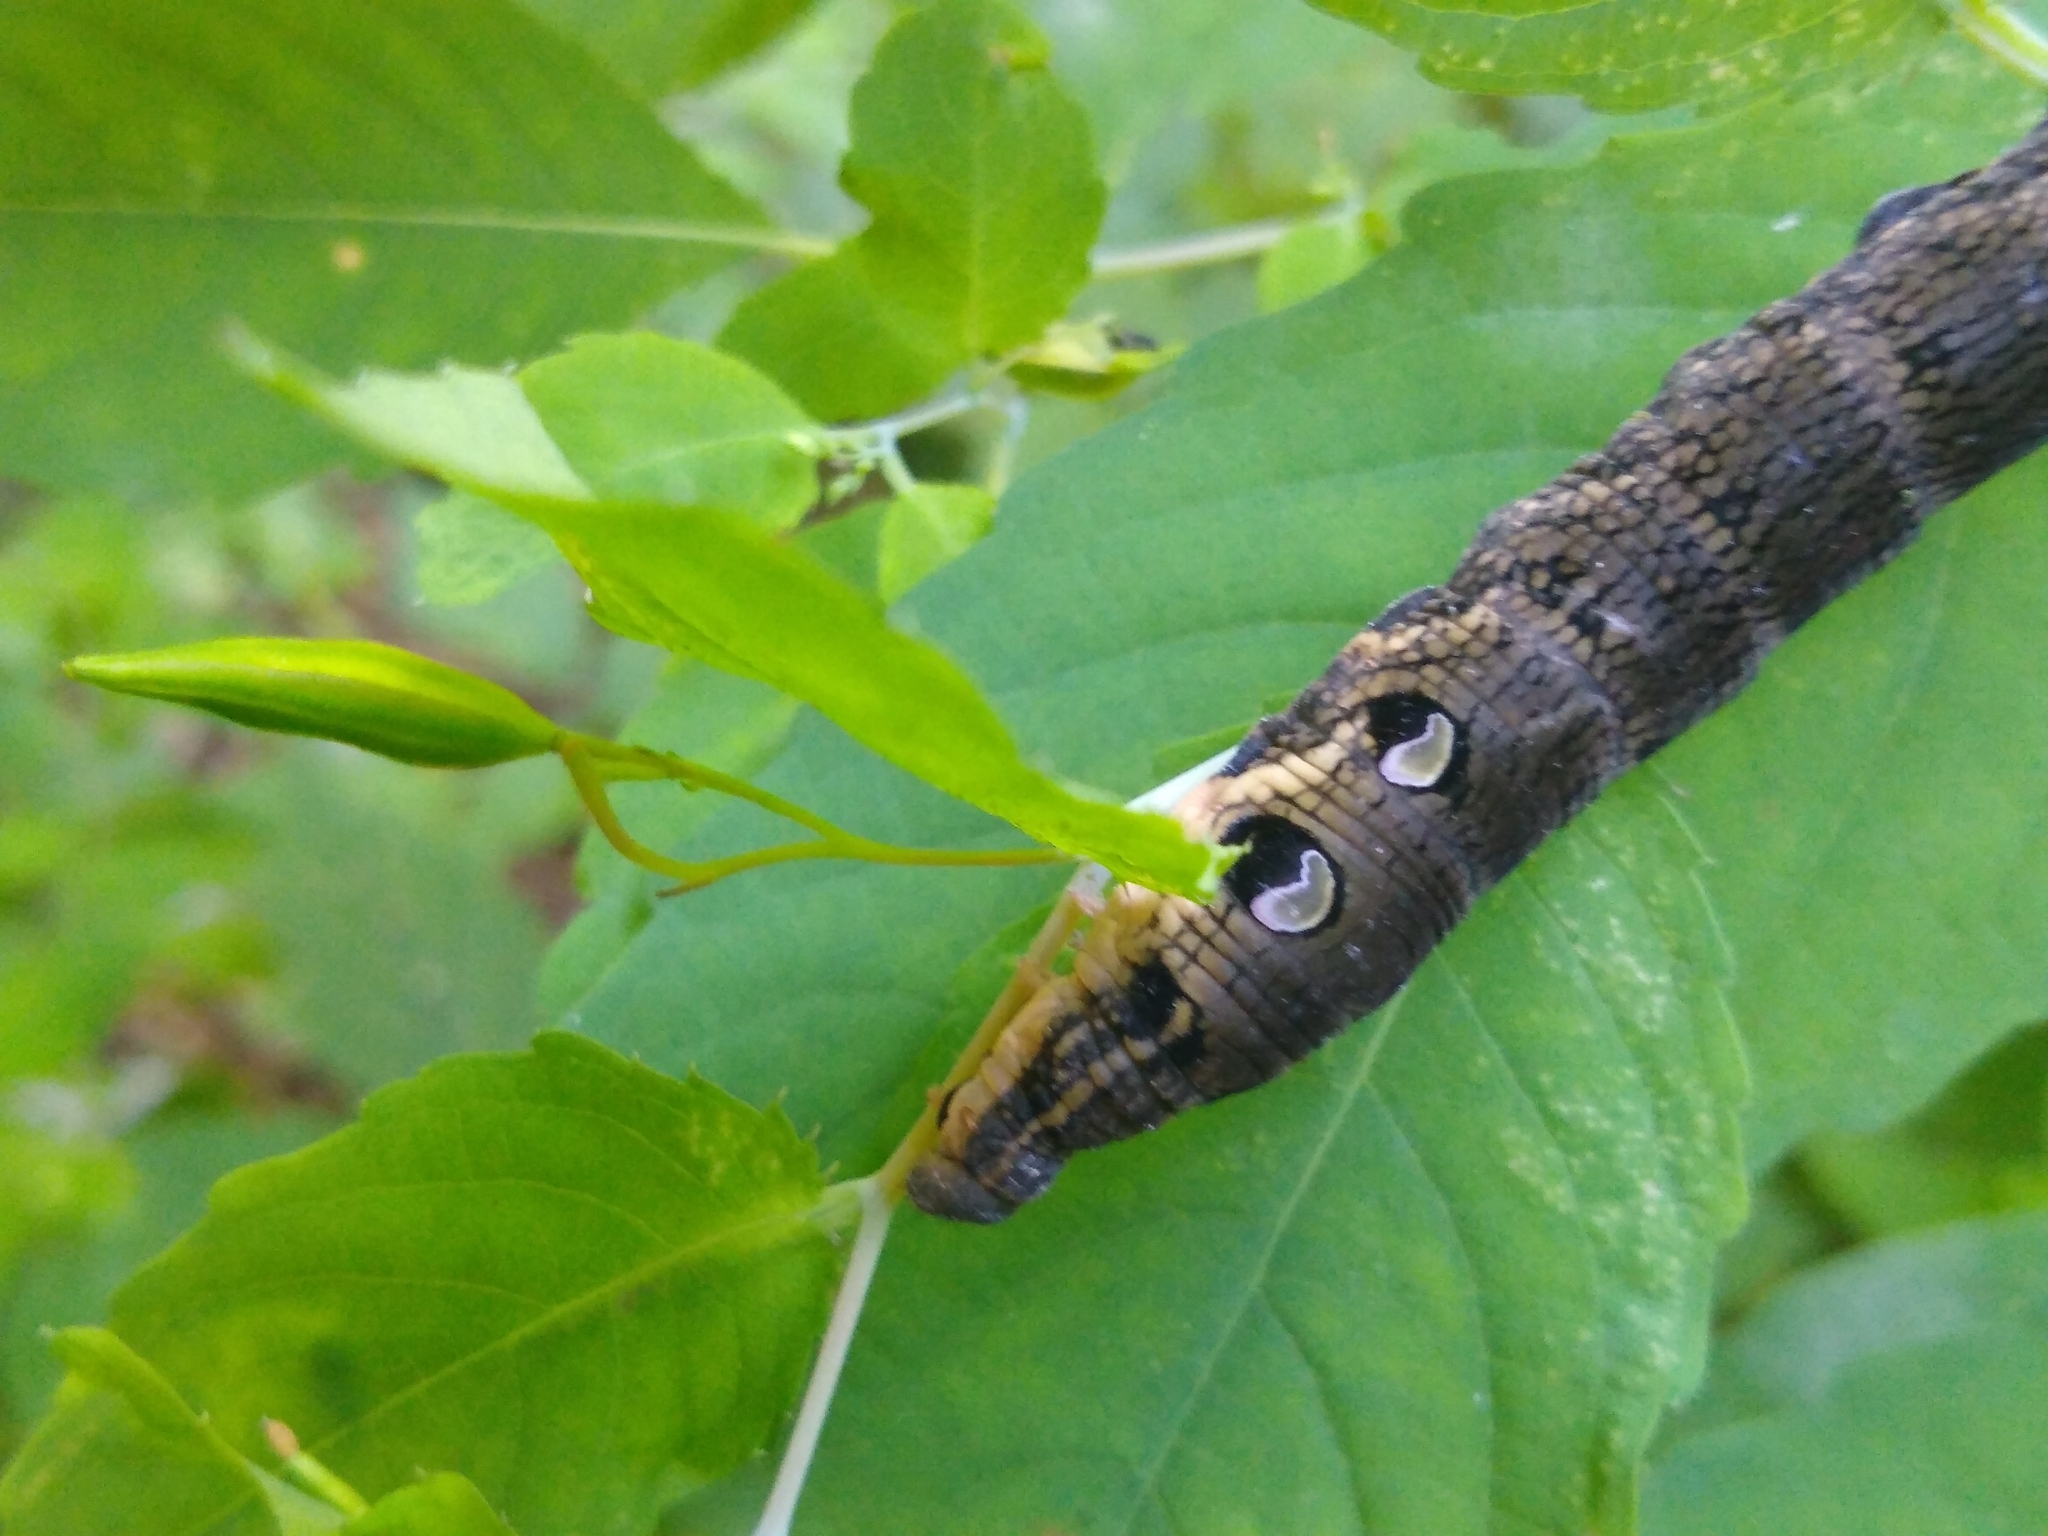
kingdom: Animalia
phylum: Arthropoda
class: Insecta
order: Lepidoptera
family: Sphingidae
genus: Deilephila
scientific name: Deilephila elpenor
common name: Elephant hawk-moth
